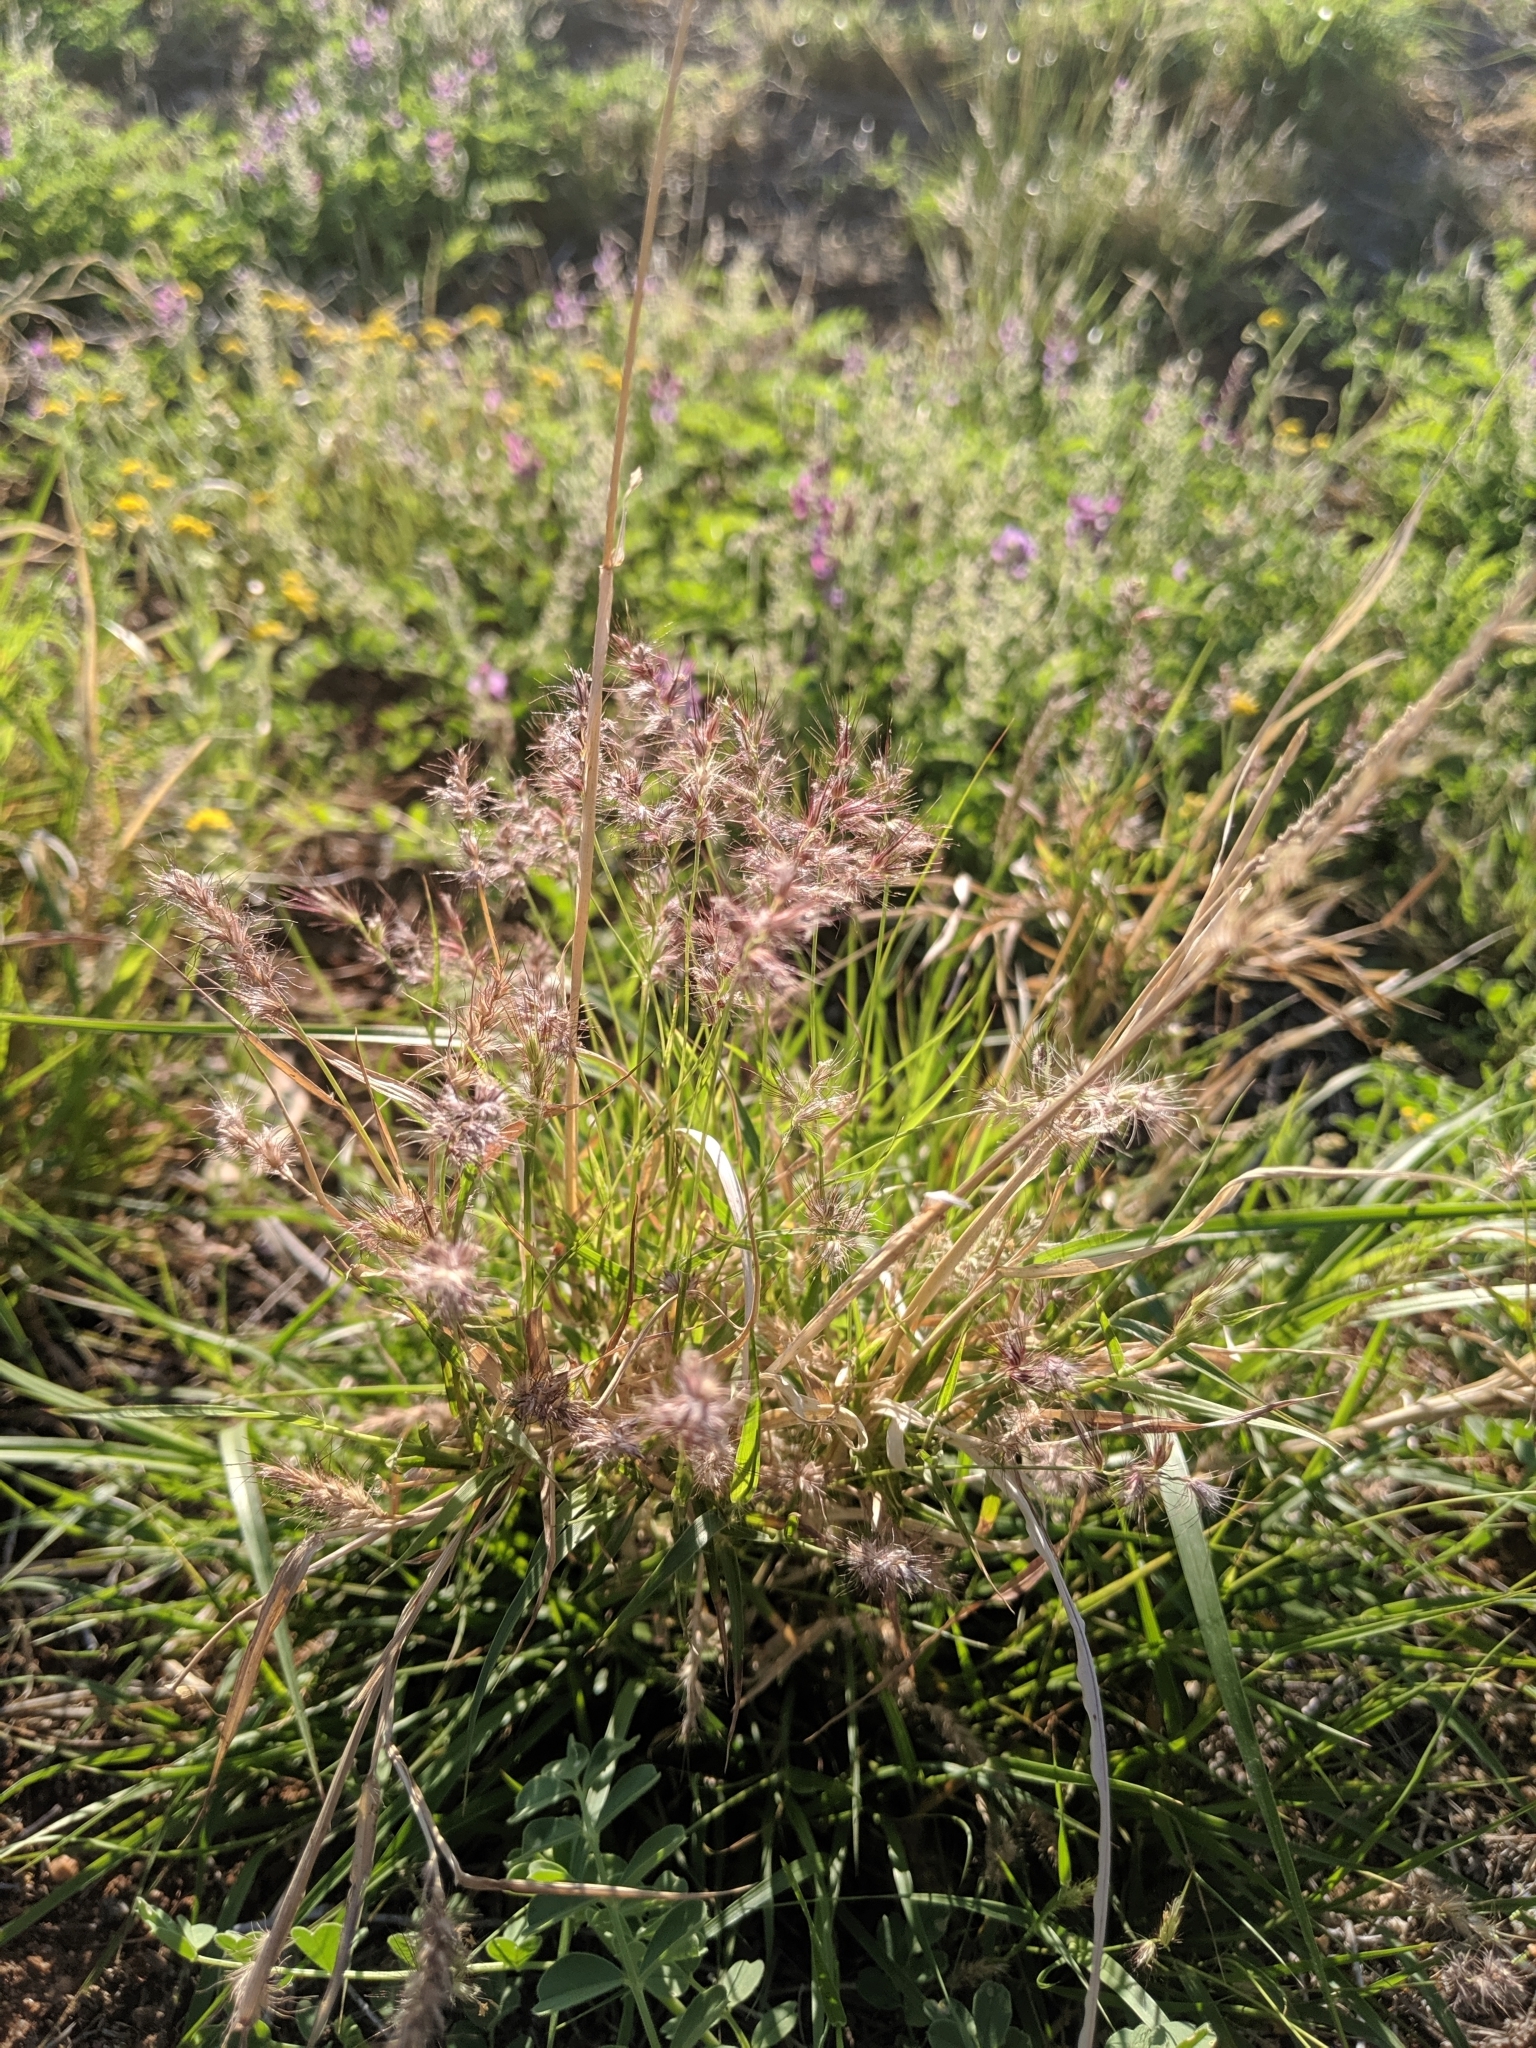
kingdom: Plantae
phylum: Tracheophyta
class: Liliopsida
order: Poales
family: Poaceae
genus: Melinis
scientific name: Melinis repens
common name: Rose natal grass
